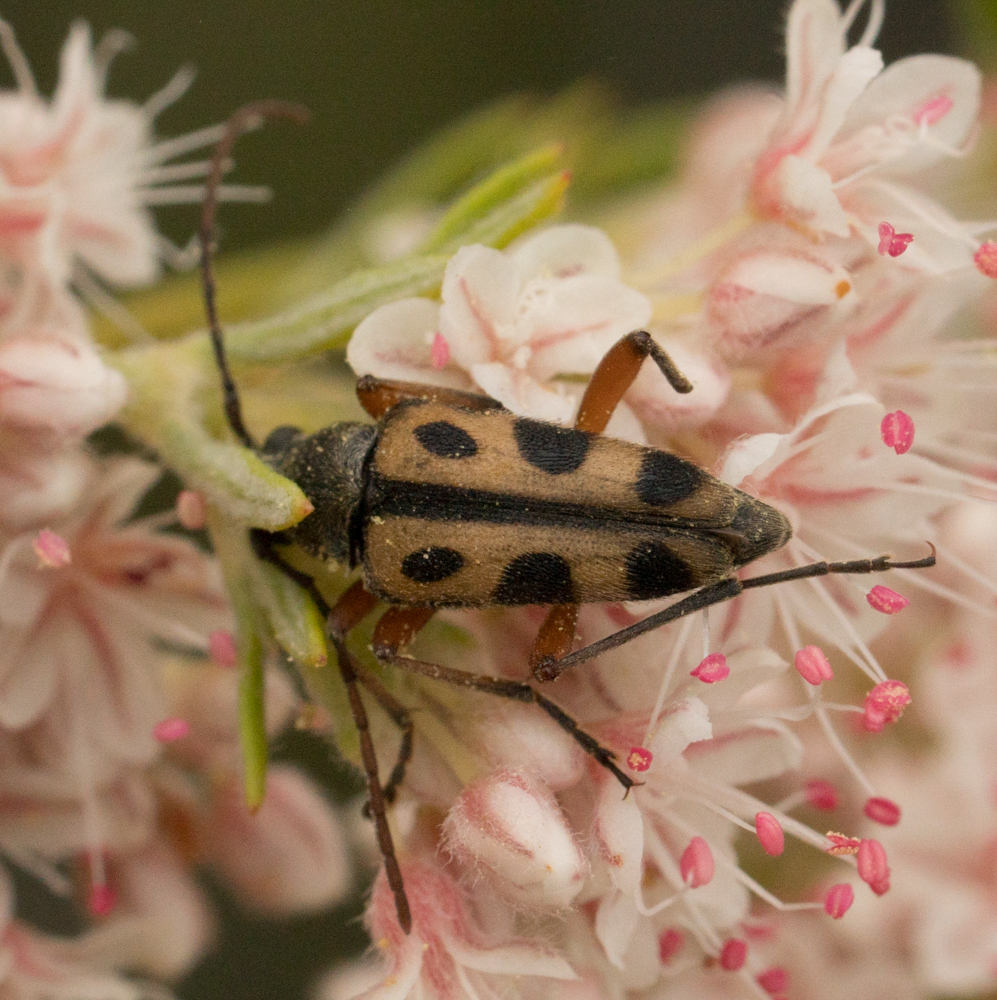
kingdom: Animalia
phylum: Arthropoda
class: Insecta
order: Coleoptera
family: Cerambycidae
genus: Judolia
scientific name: Judolia sexspilota
